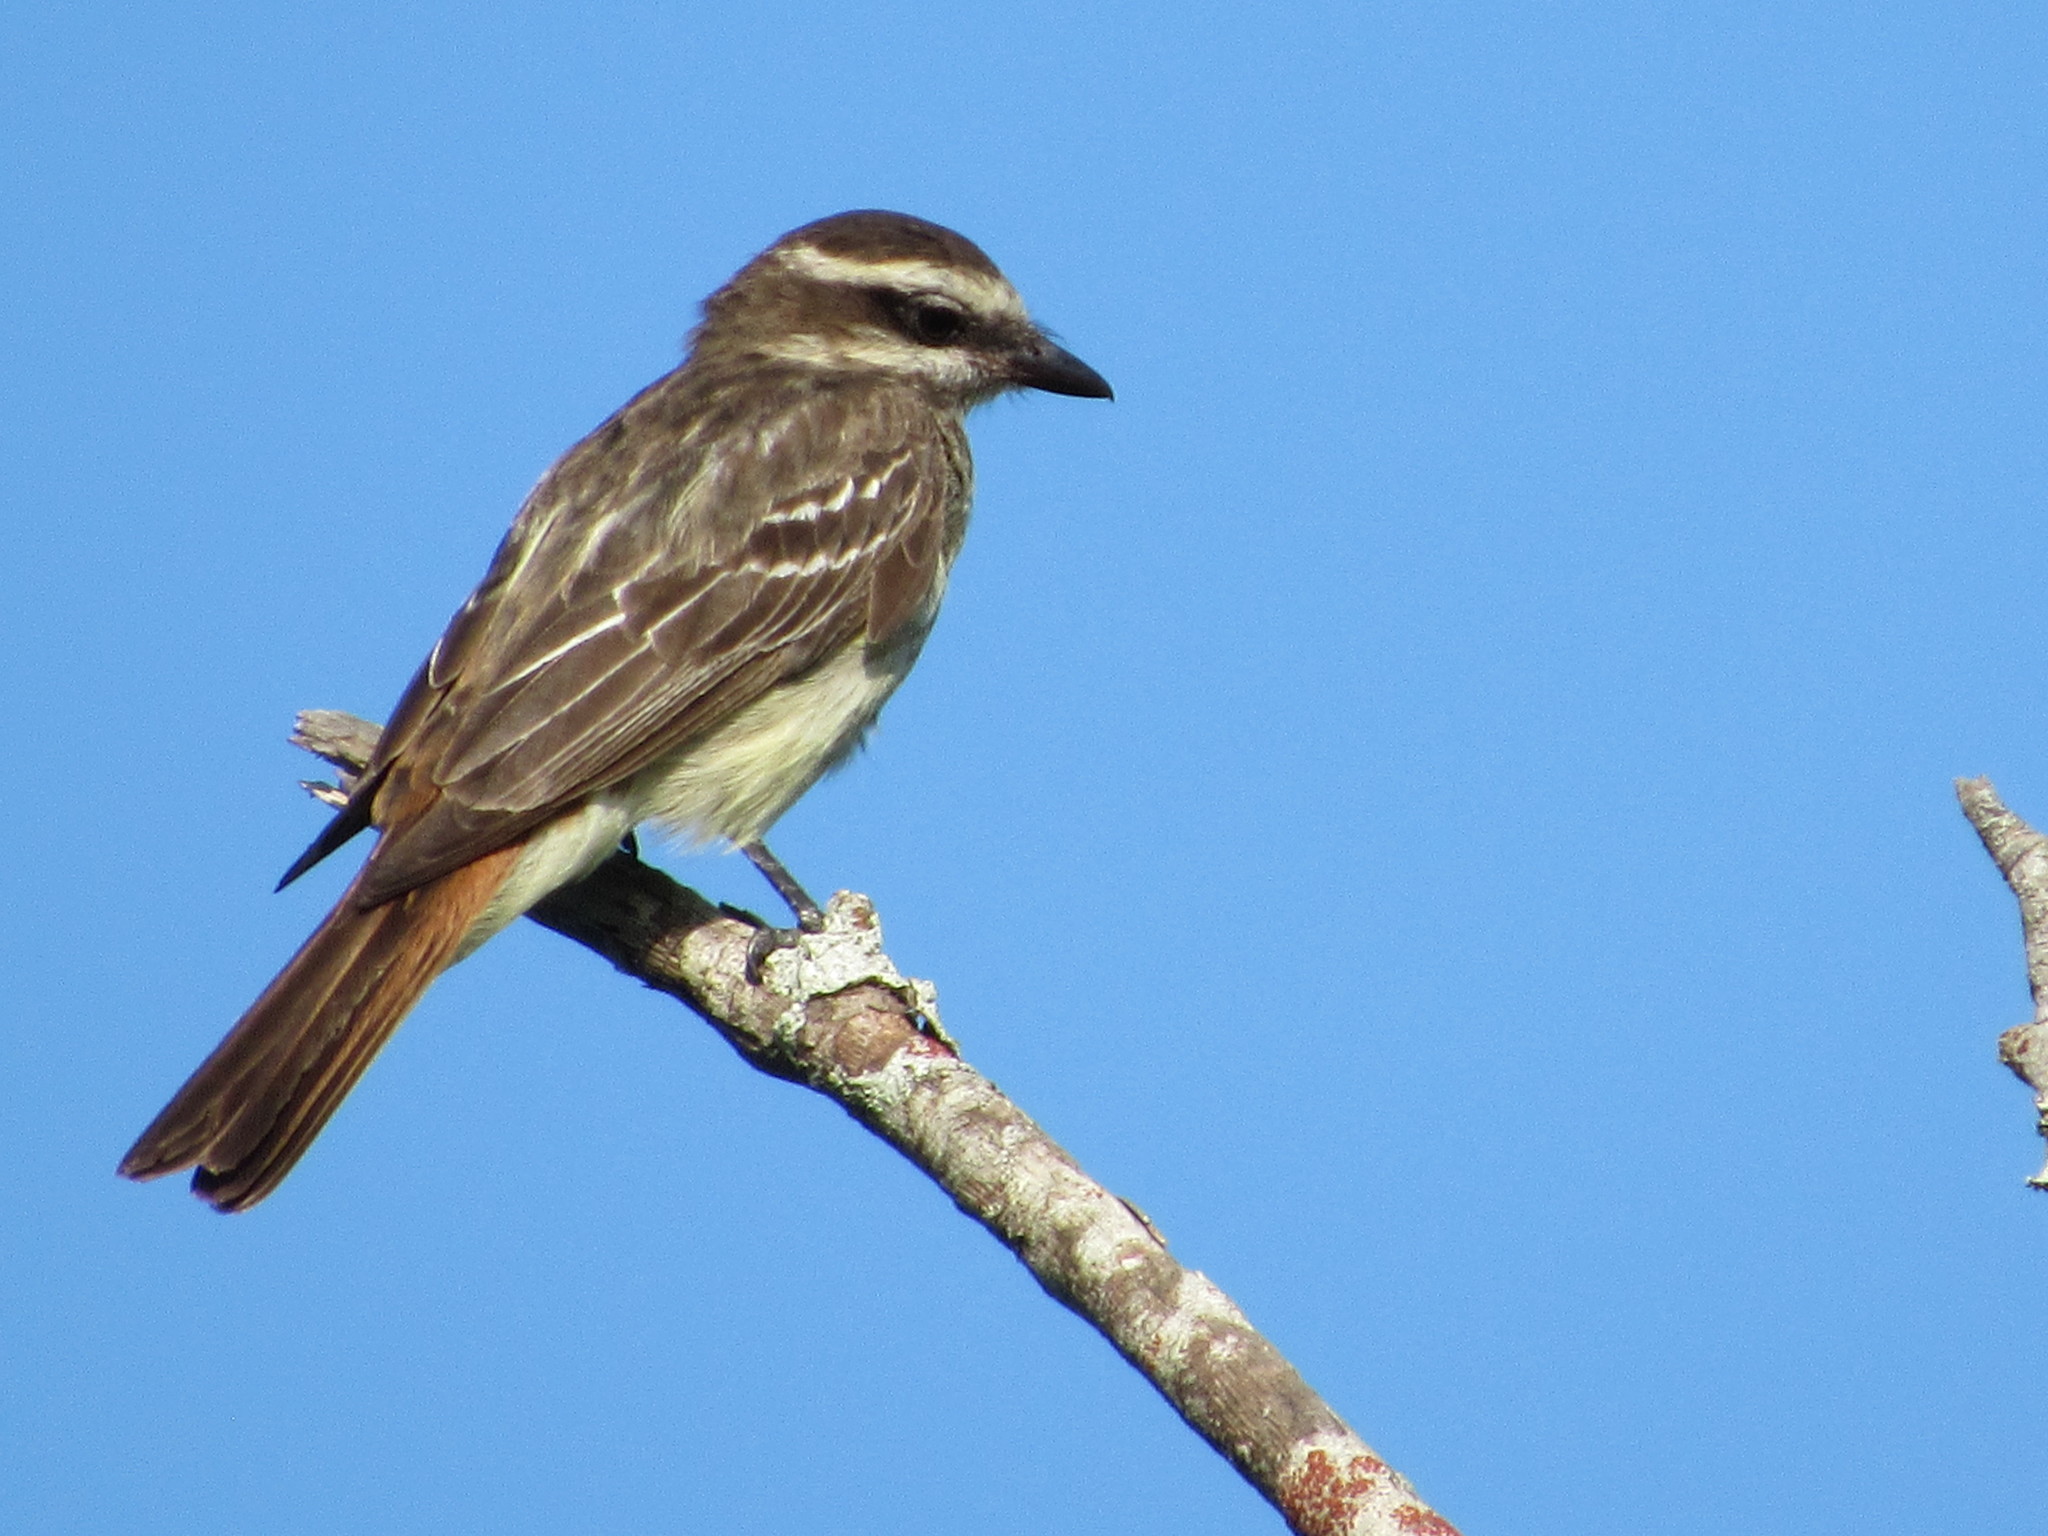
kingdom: Animalia
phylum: Chordata
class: Aves
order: Passeriformes
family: Tyrannidae
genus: Empidonomus
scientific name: Empidonomus varius
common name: Variegated flycatcher
